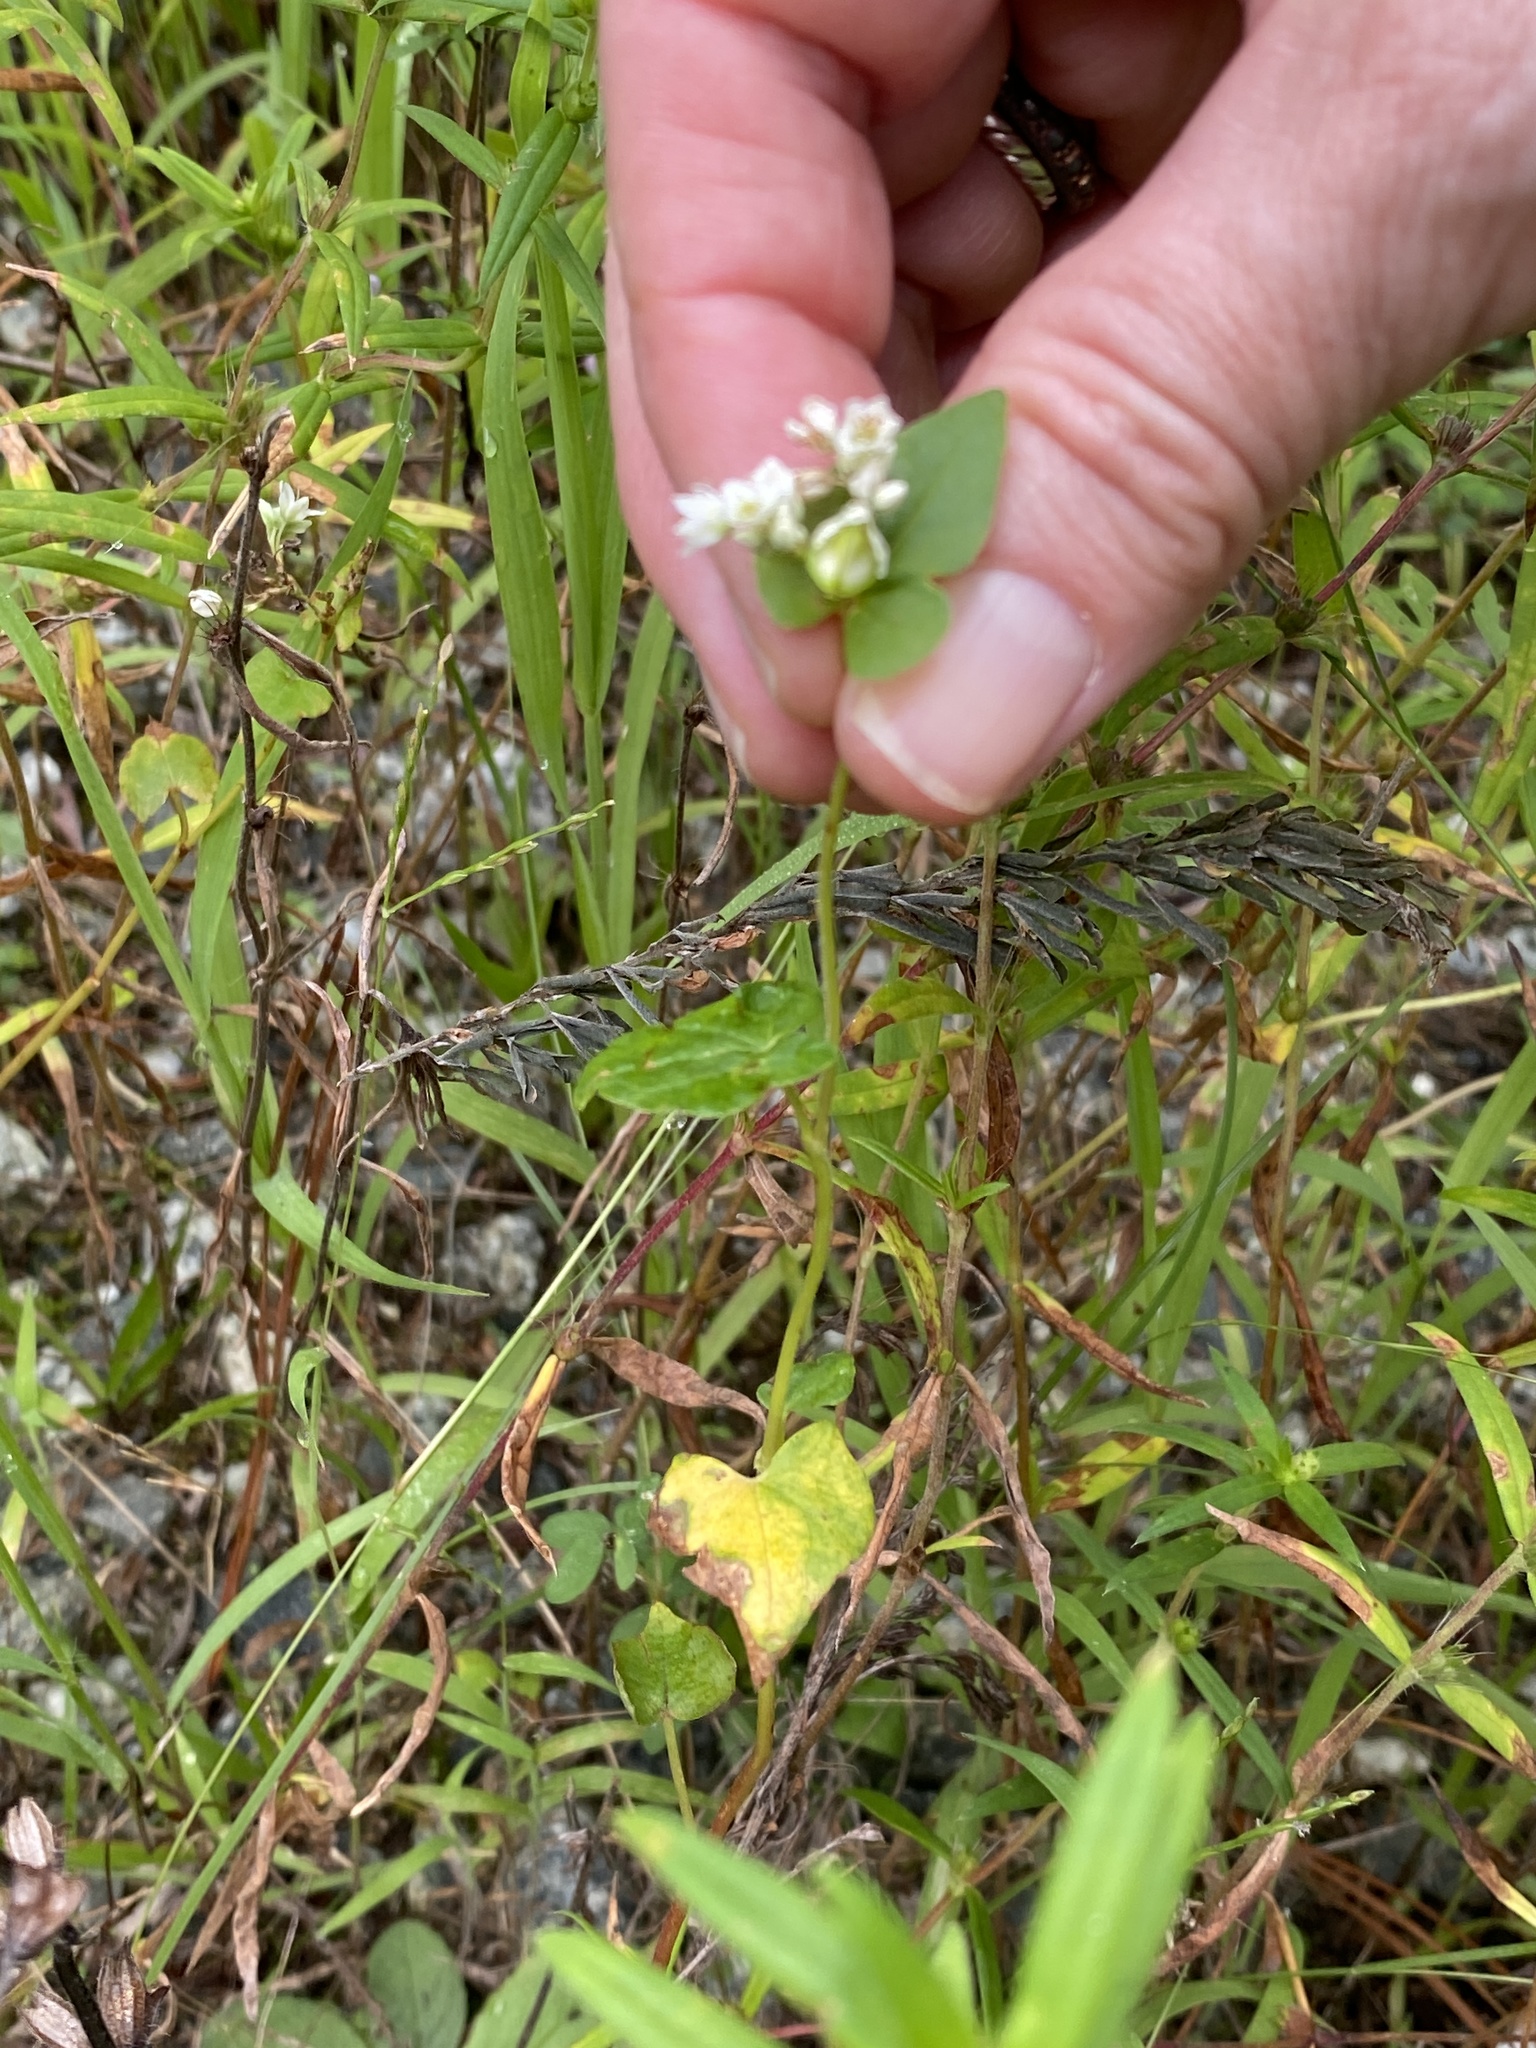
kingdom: Plantae
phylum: Tracheophyta
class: Magnoliopsida
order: Caryophyllales
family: Polygonaceae
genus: Fagopyrum
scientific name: Fagopyrum esculentum
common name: Buckwheat
